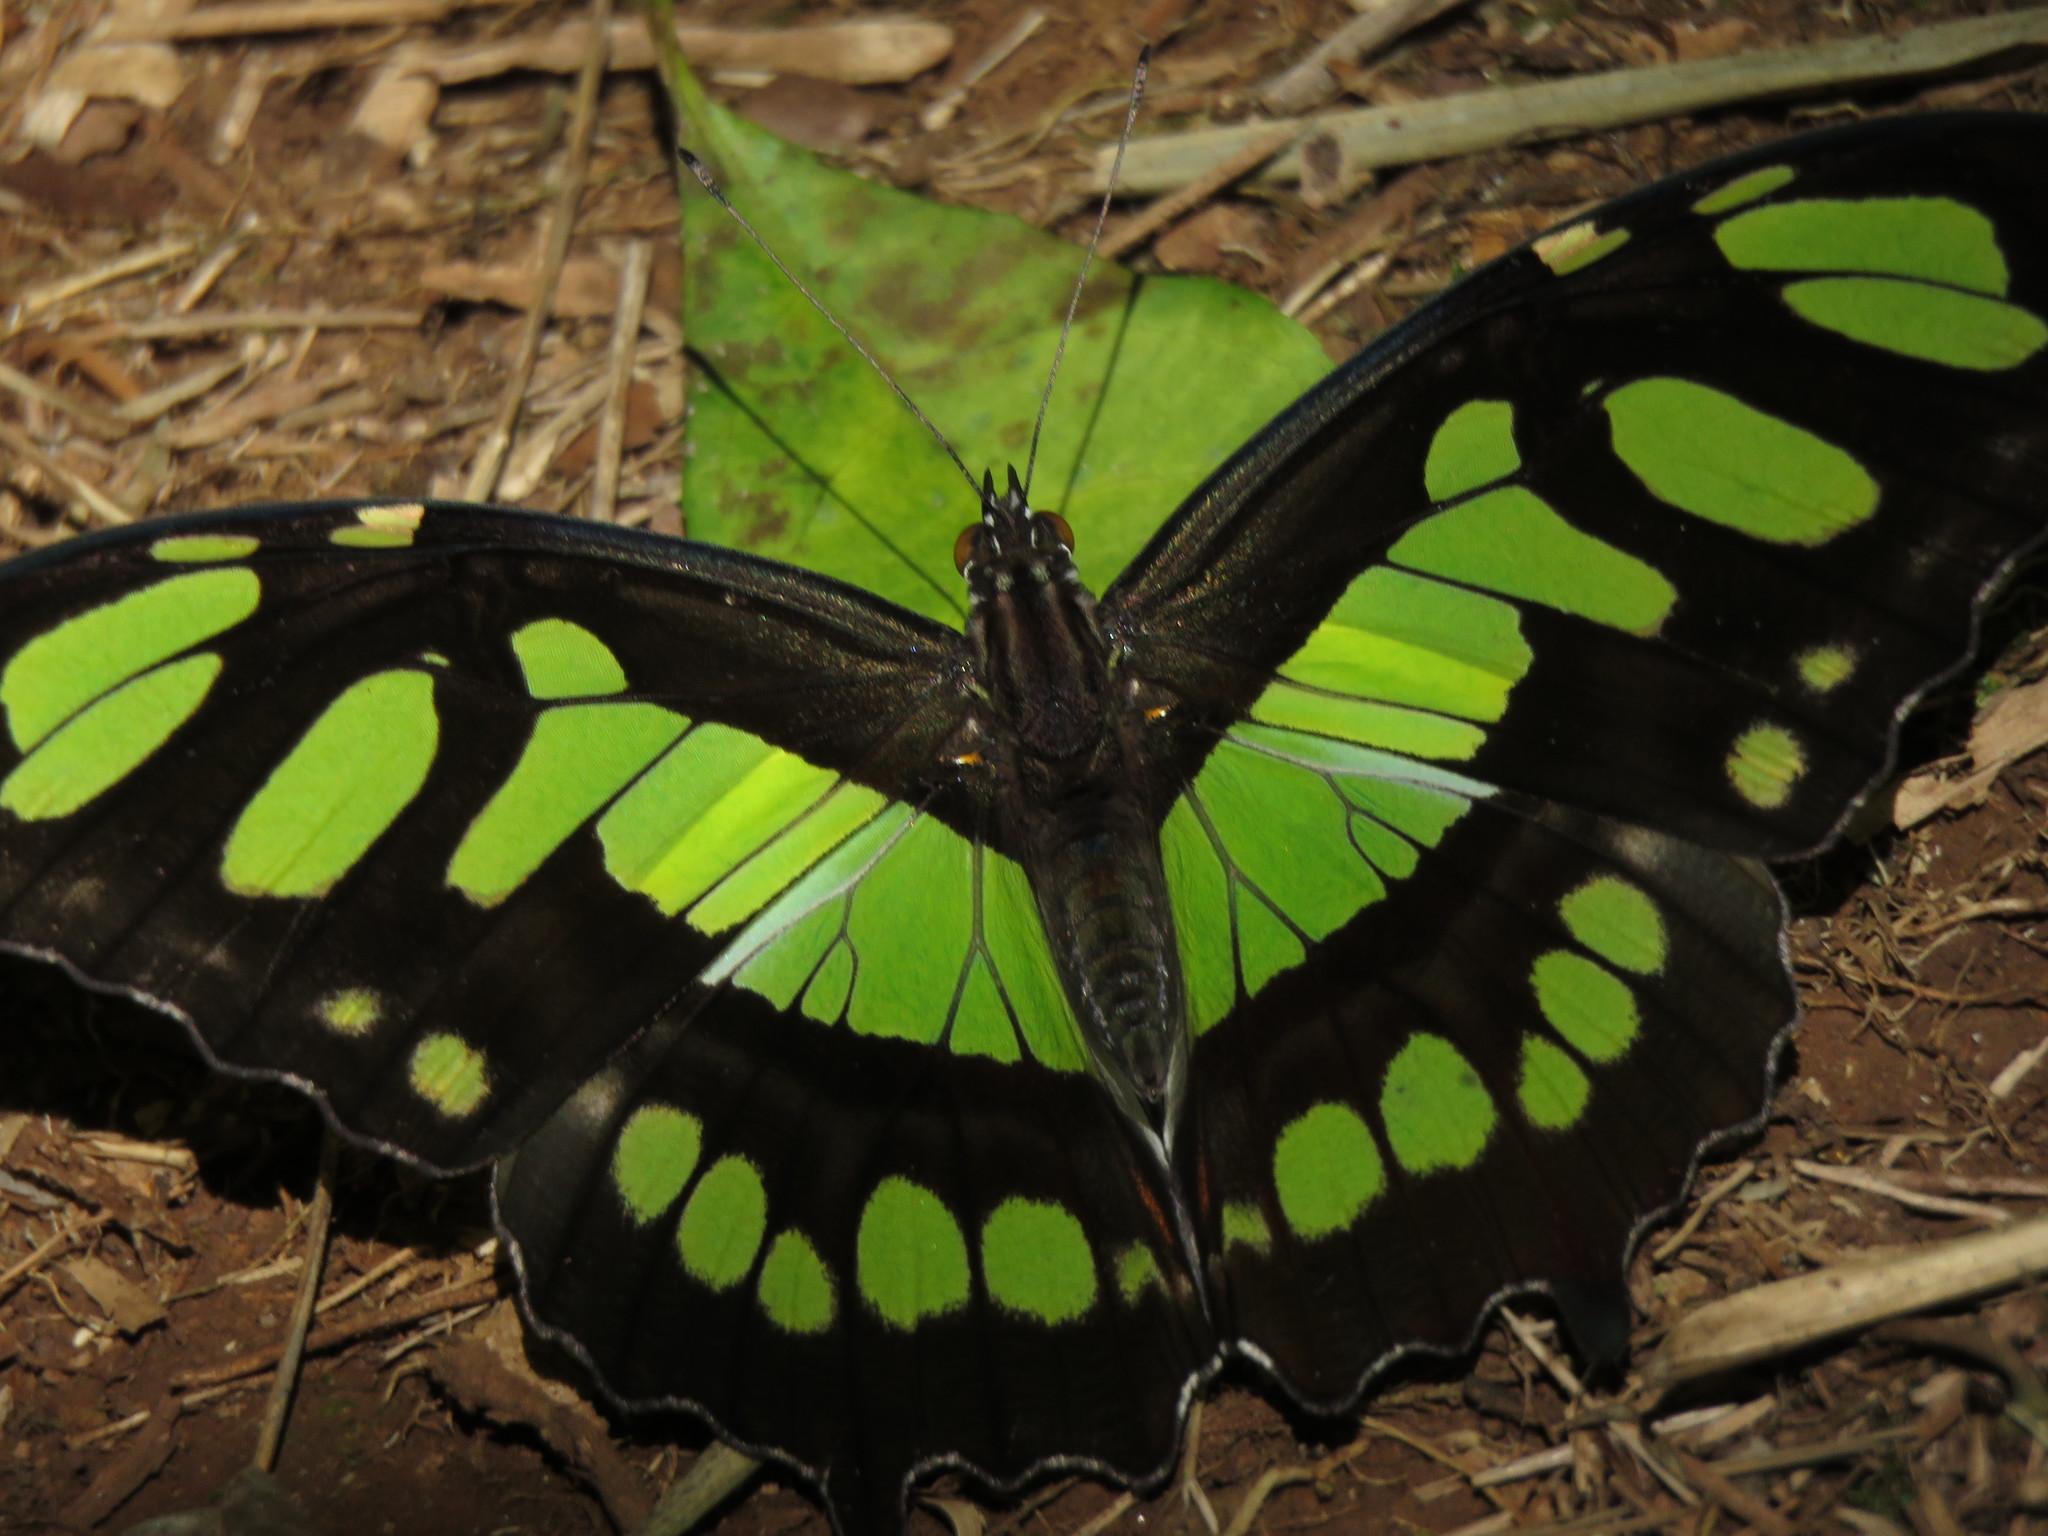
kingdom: Animalia
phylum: Arthropoda
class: Insecta
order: Lepidoptera
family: Nymphalidae
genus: Siproeta
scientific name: Siproeta stelenes
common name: Malachite
